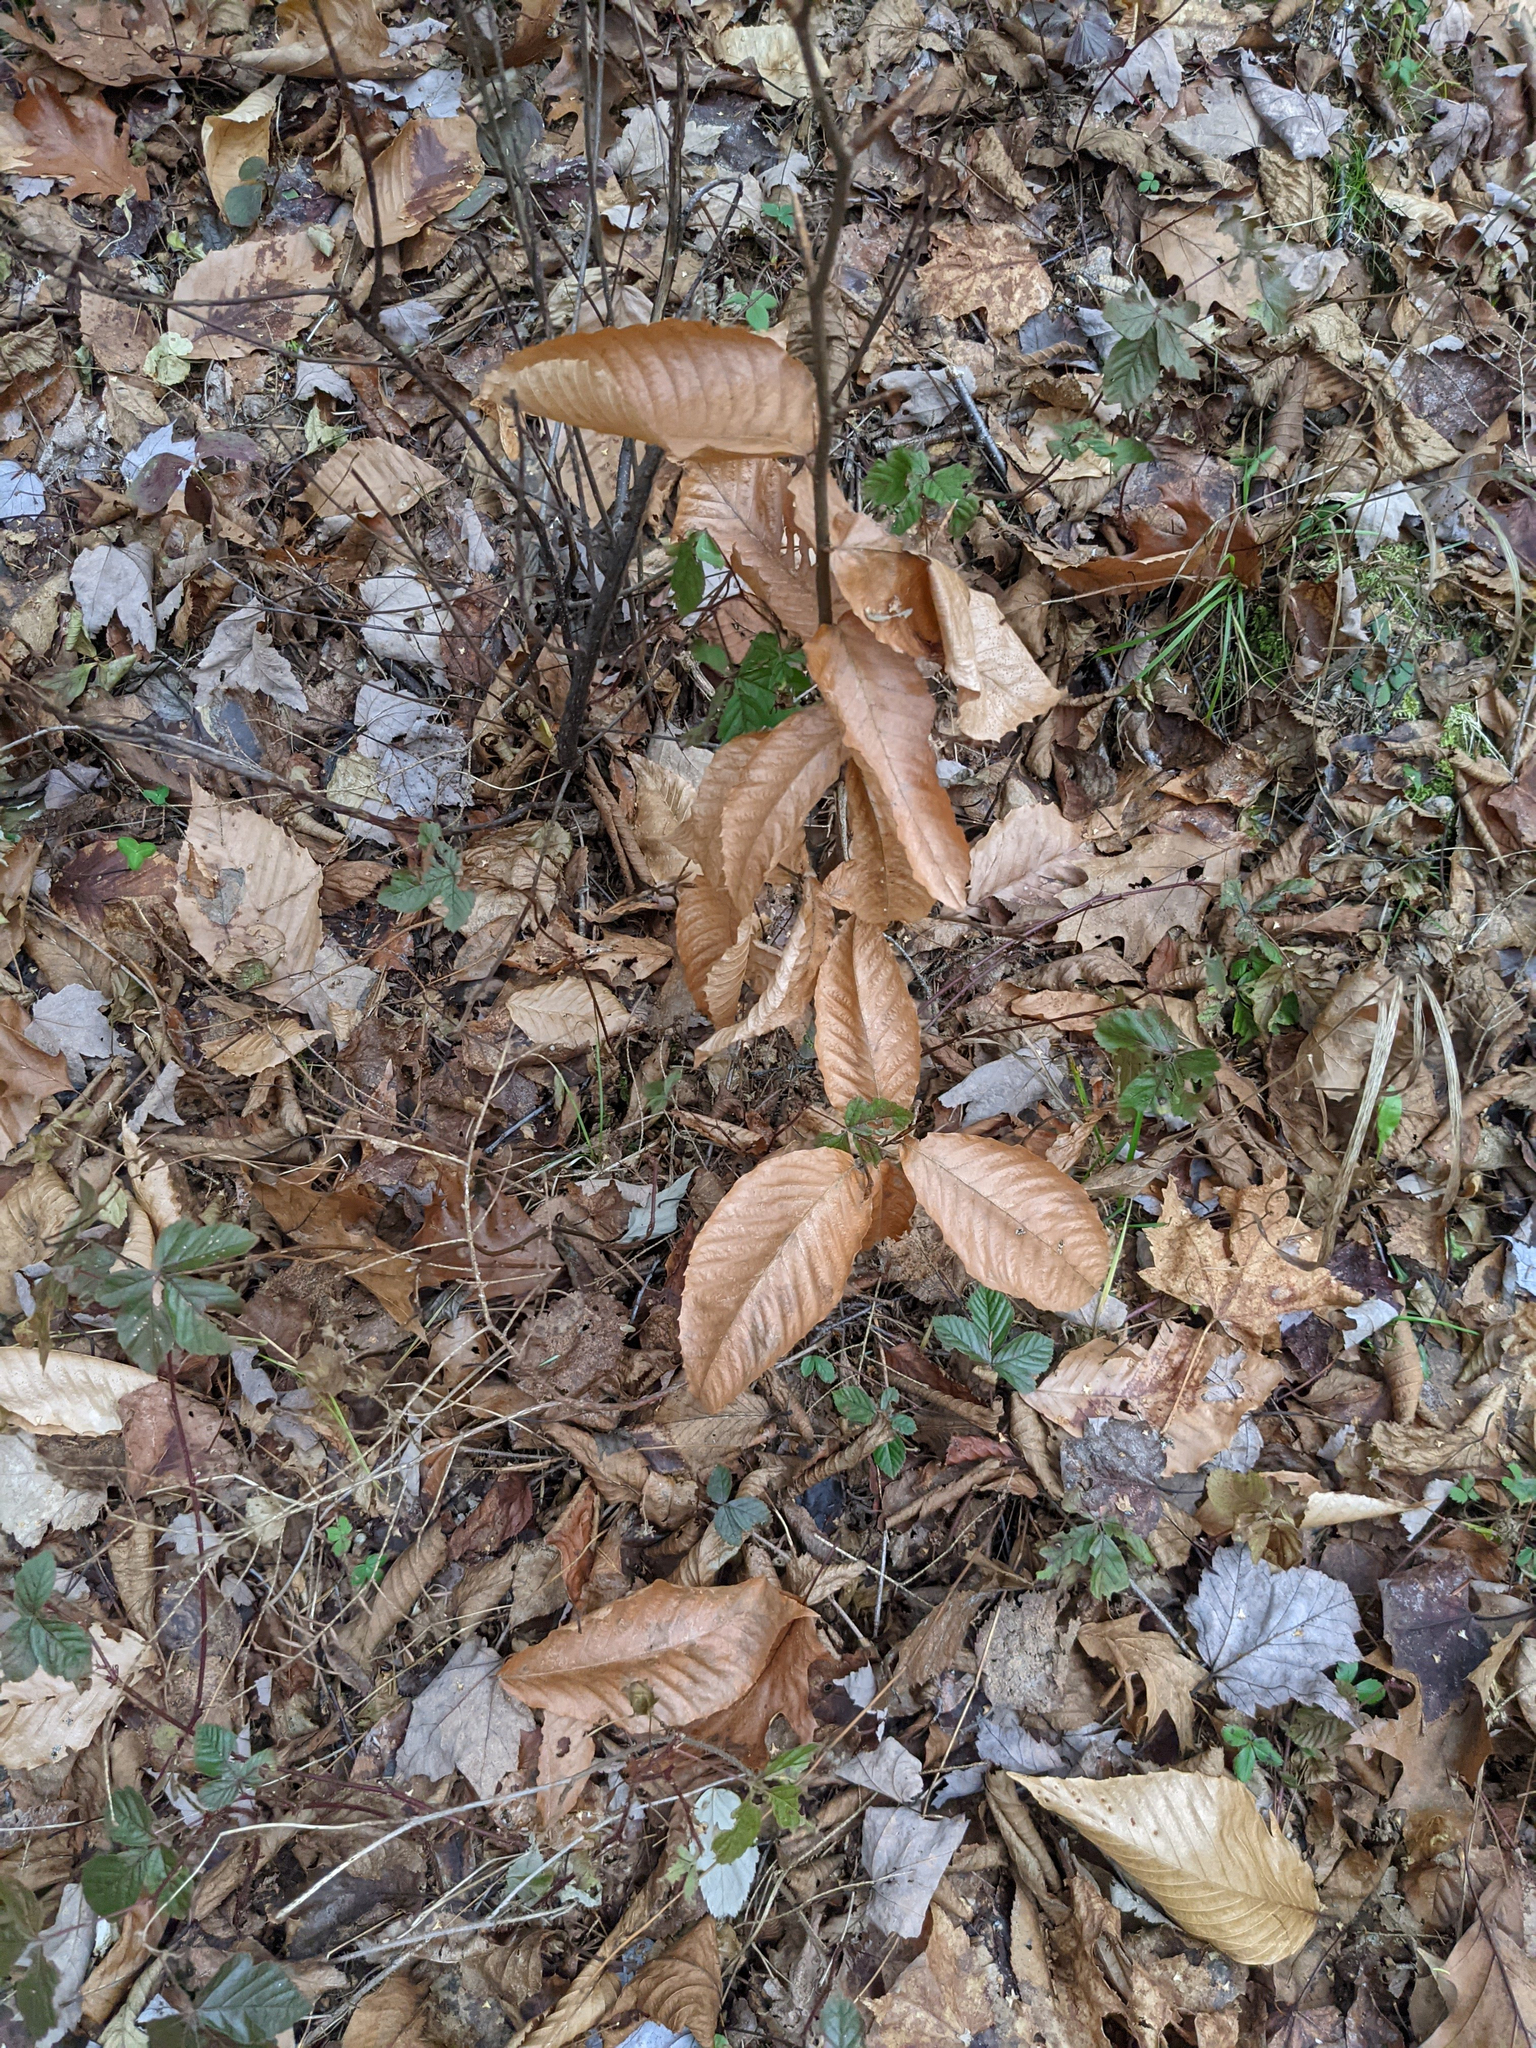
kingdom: Plantae
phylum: Tracheophyta
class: Magnoliopsida
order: Fagales
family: Fagaceae
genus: Fagus
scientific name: Fagus grandifolia
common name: American beech
